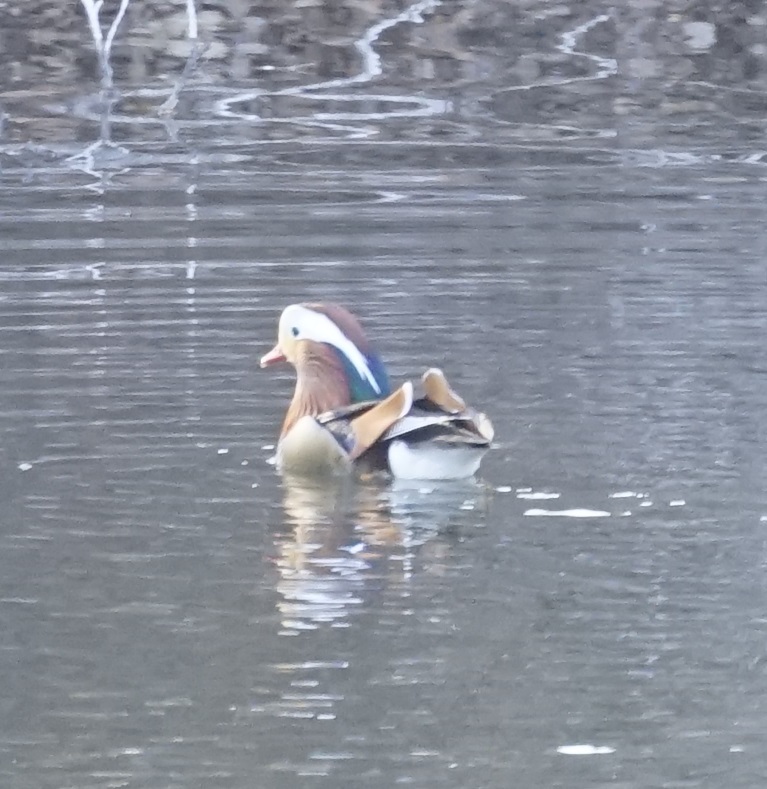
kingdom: Animalia
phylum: Chordata
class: Aves
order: Anseriformes
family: Anatidae
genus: Aix
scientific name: Aix galericulata
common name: Mandarin duck
